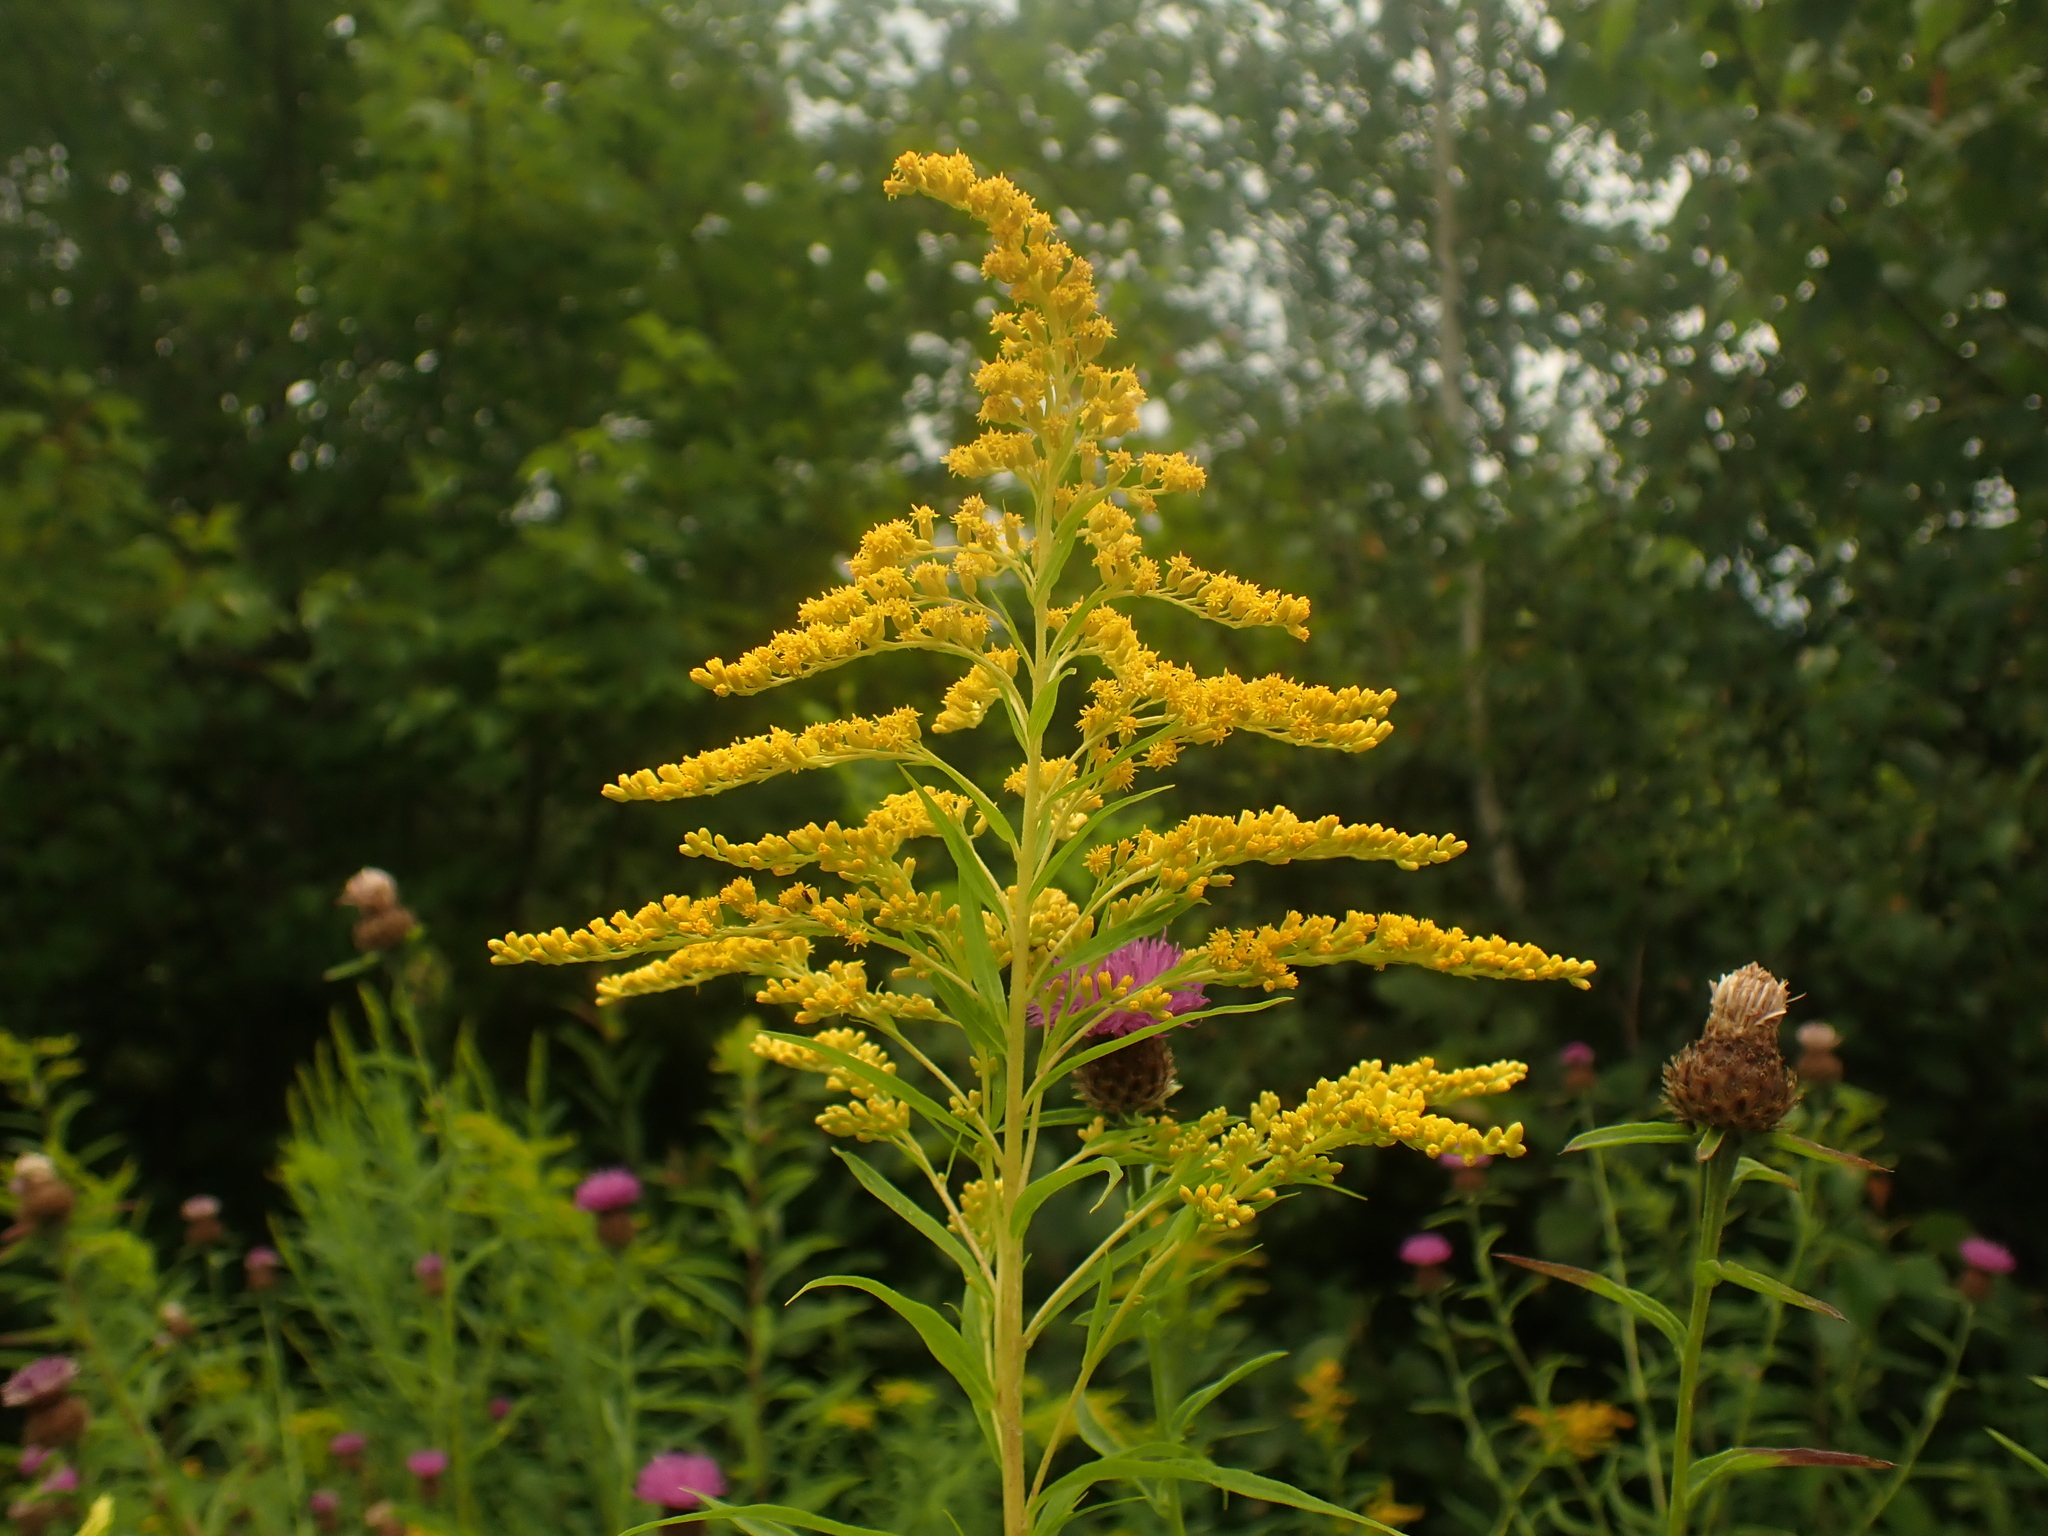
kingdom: Plantae
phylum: Tracheophyta
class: Magnoliopsida
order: Asterales
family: Asteraceae
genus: Solidago
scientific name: Solidago canadensis
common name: Canada goldenrod
